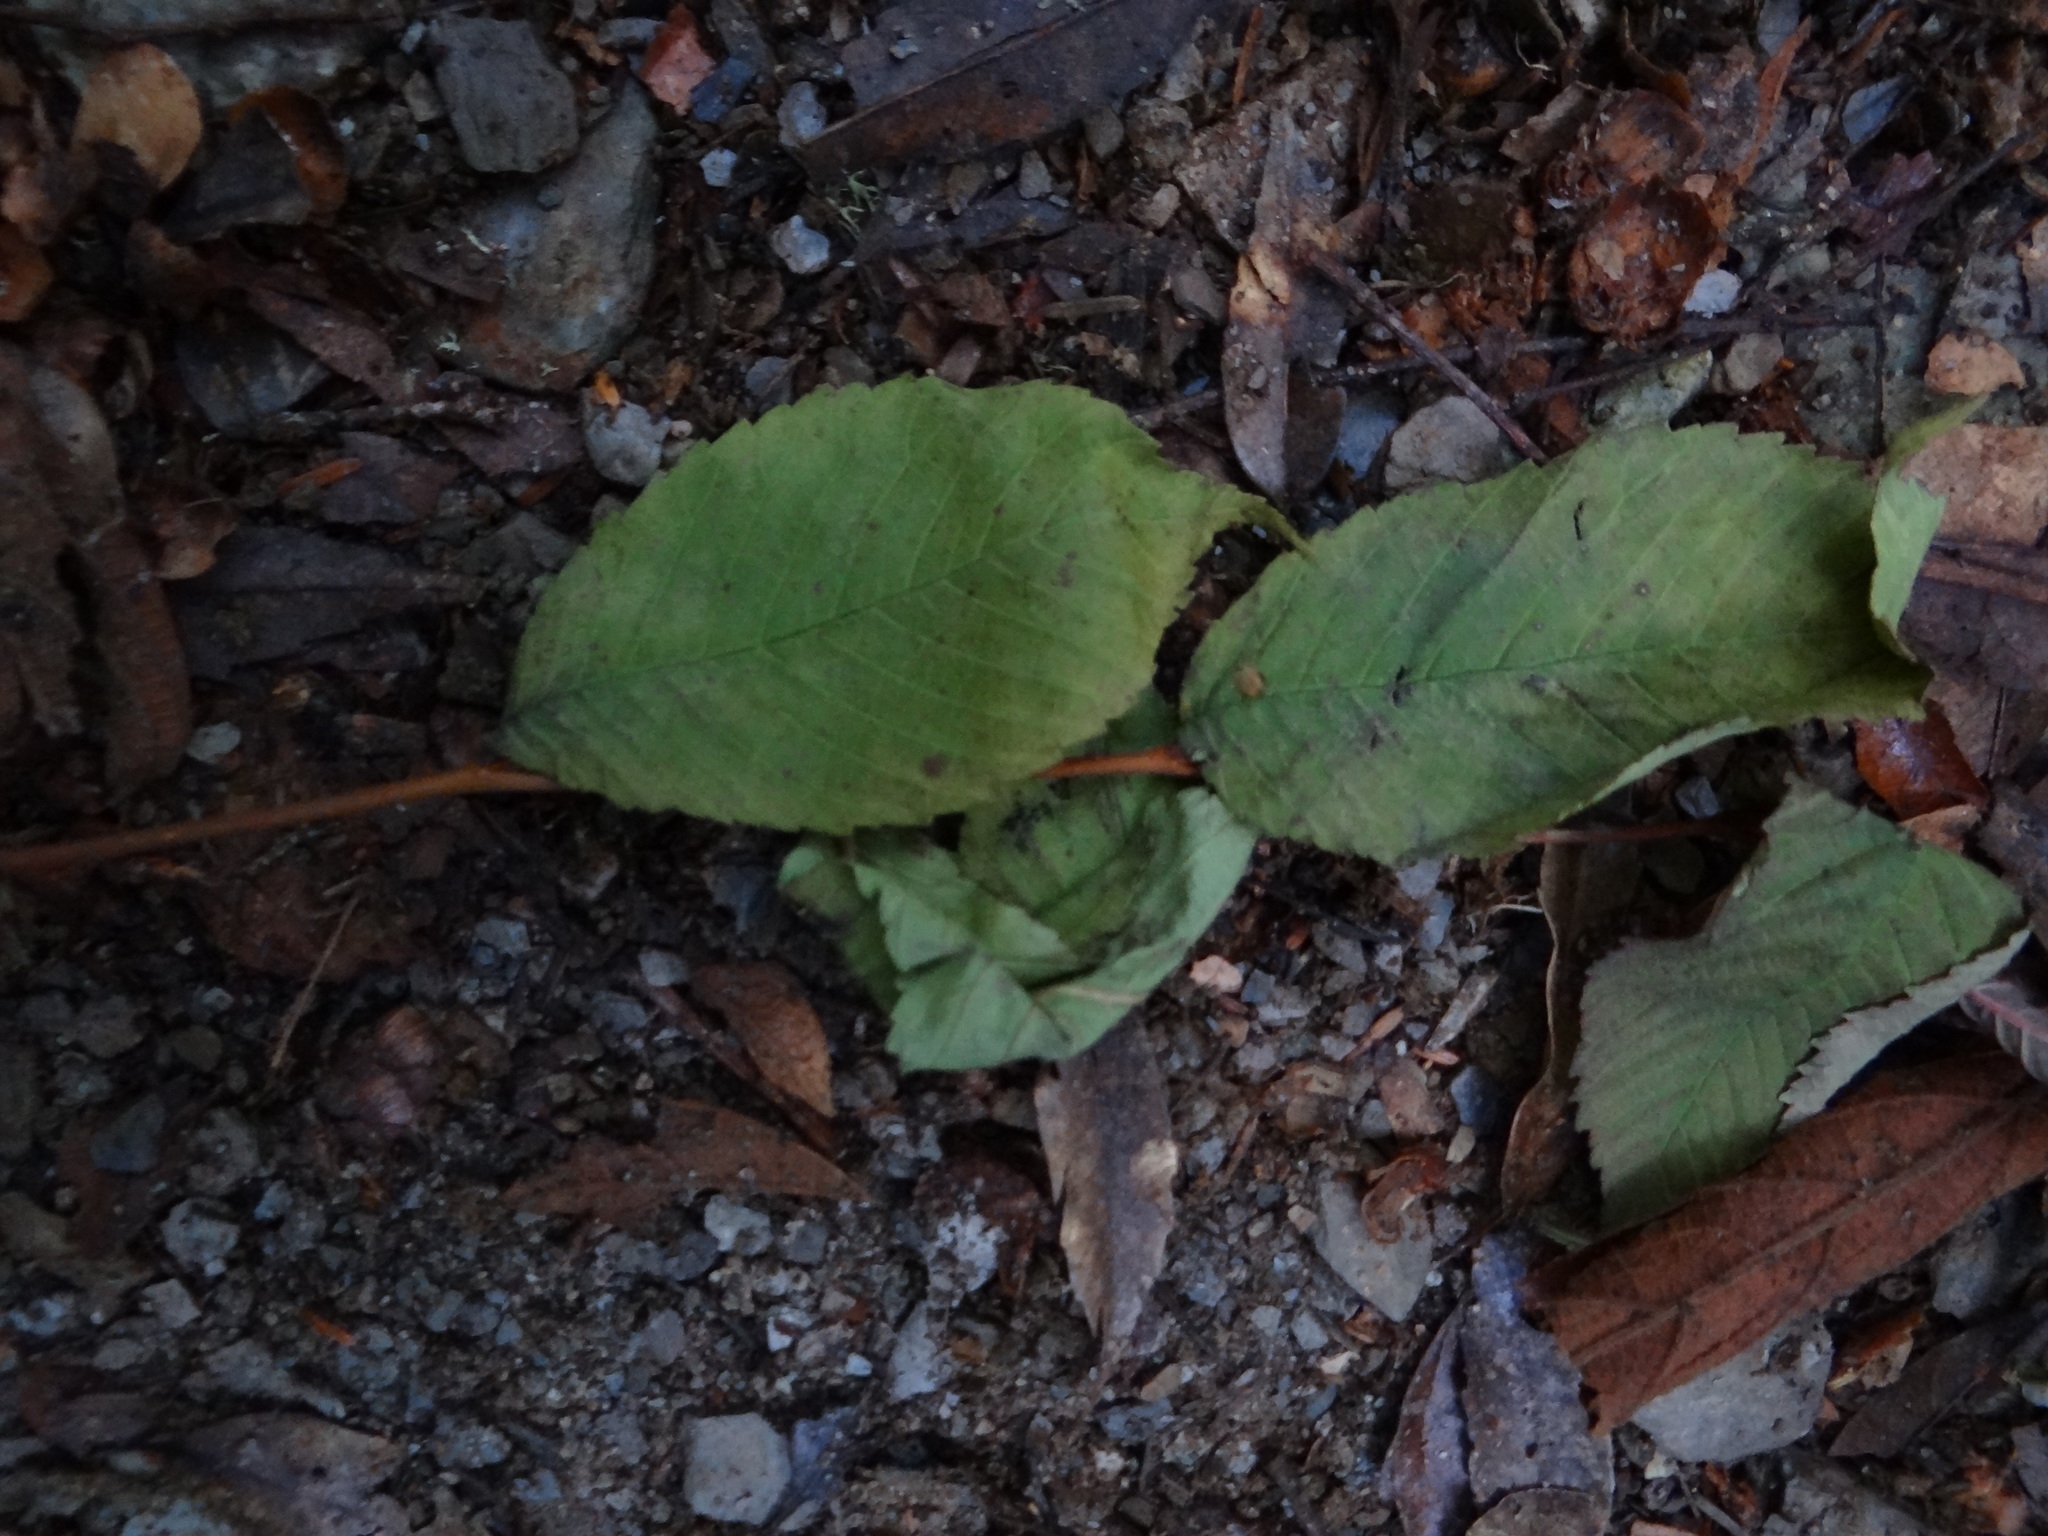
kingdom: Plantae
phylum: Tracheophyta
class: Magnoliopsida
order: Rosales
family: Ulmaceae
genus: Ulmus
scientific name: Ulmus uyematsui
